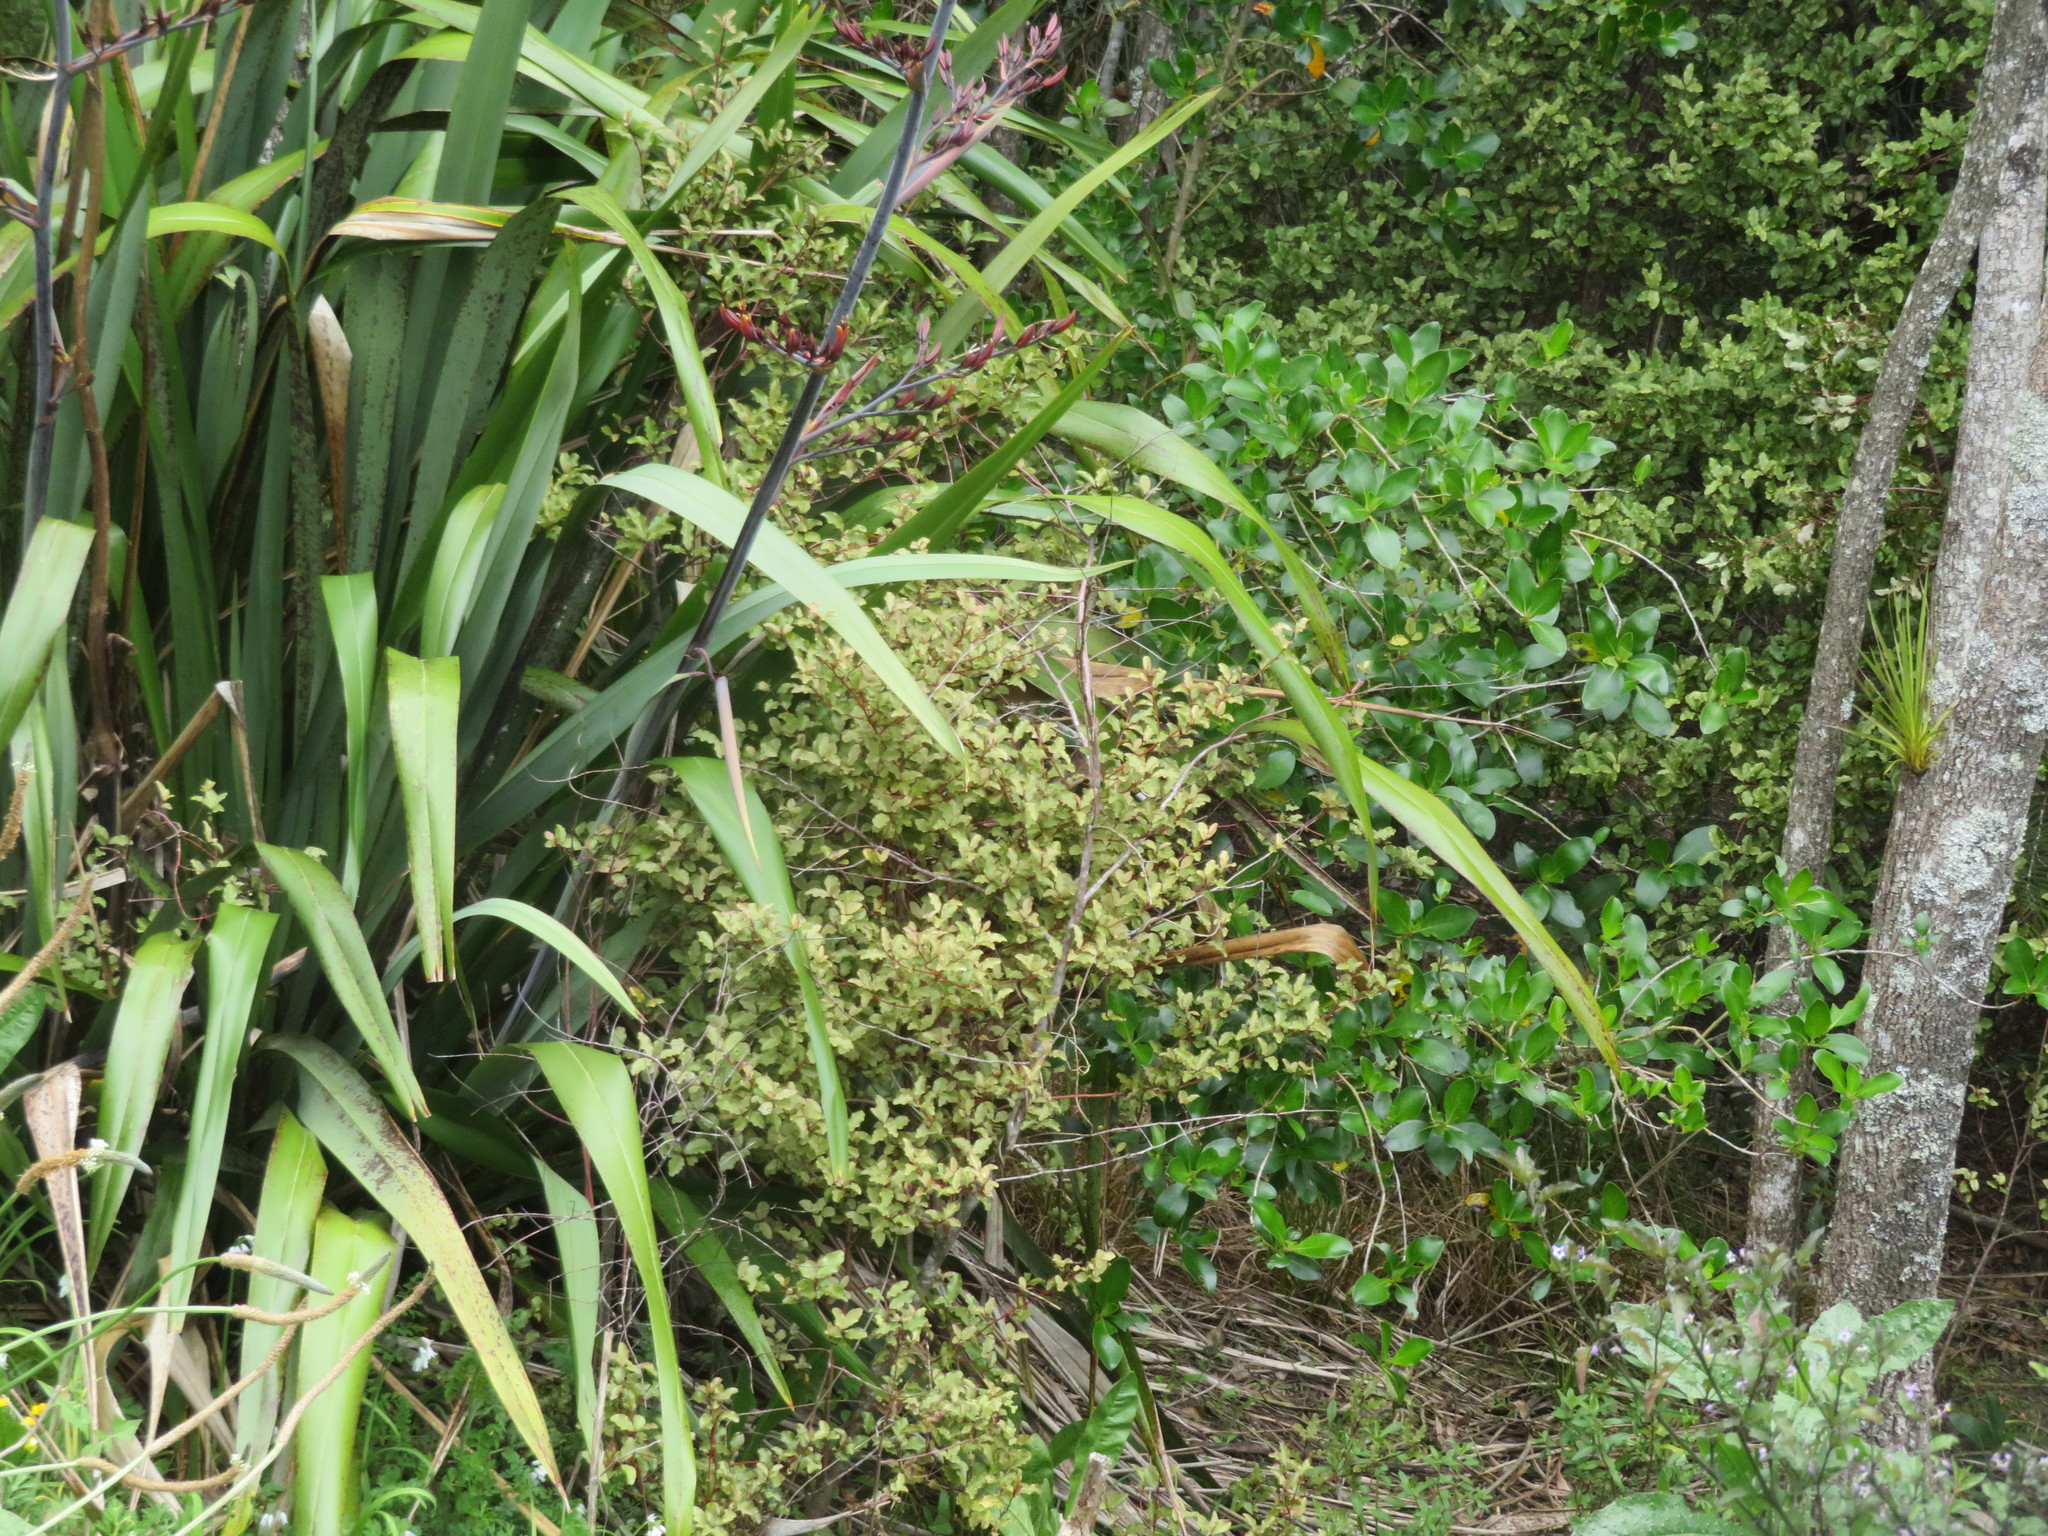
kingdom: Plantae
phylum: Tracheophyta
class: Magnoliopsida
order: Ericales
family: Primulaceae
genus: Myrsine
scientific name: Myrsine australis
